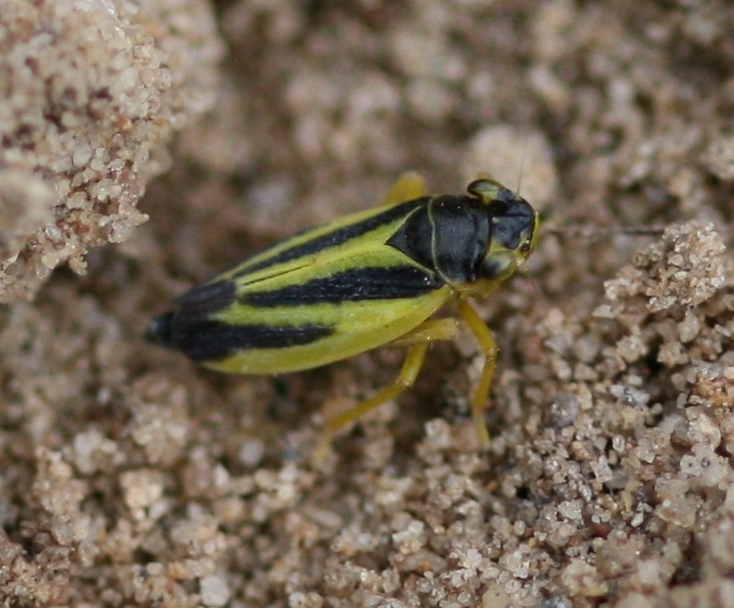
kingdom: Animalia
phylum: Arthropoda
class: Insecta
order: Hemiptera
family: Cicadellidae
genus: Evacanthus
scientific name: Evacanthus interruptus
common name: Leafhopper
